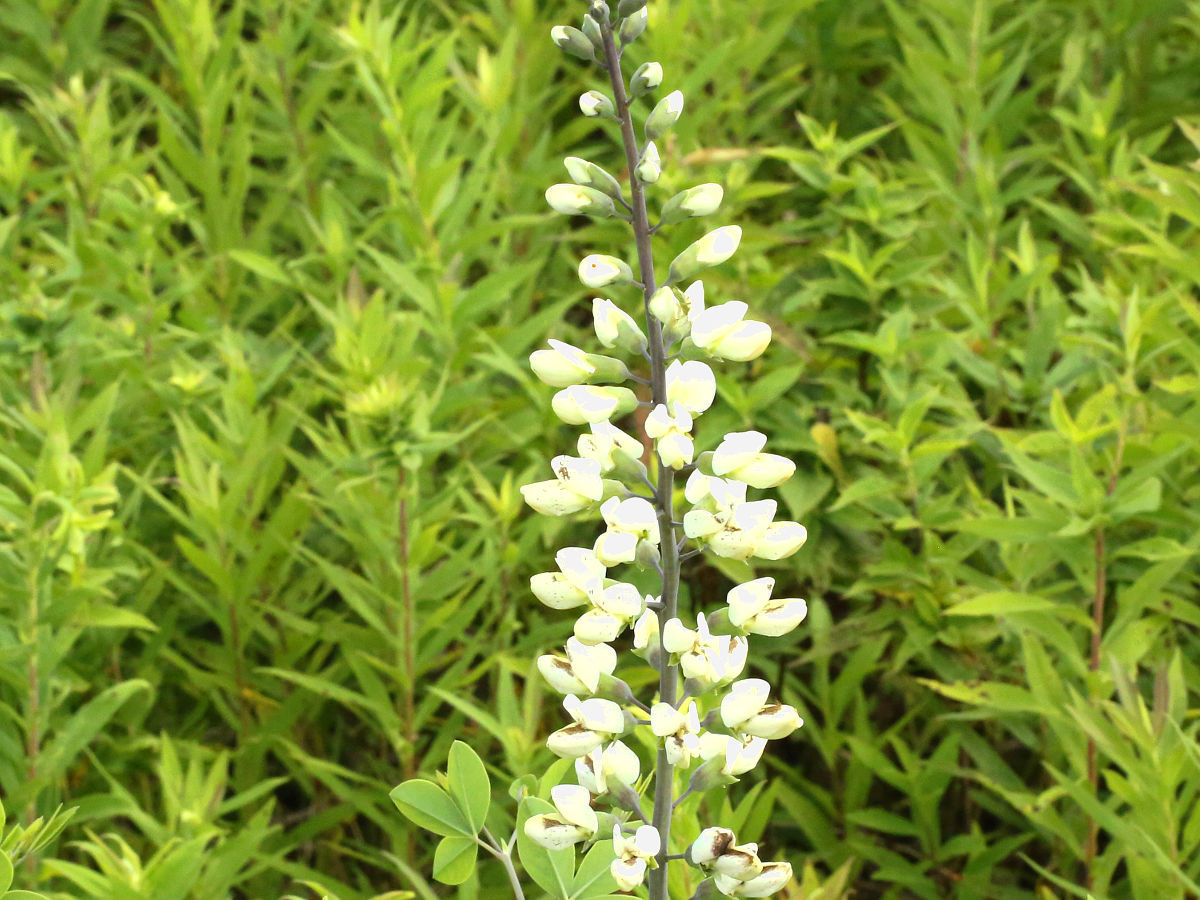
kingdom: Plantae
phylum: Tracheophyta
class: Magnoliopsida
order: Fabales
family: Fabaceae
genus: Baptisia
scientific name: Baptisia alba
